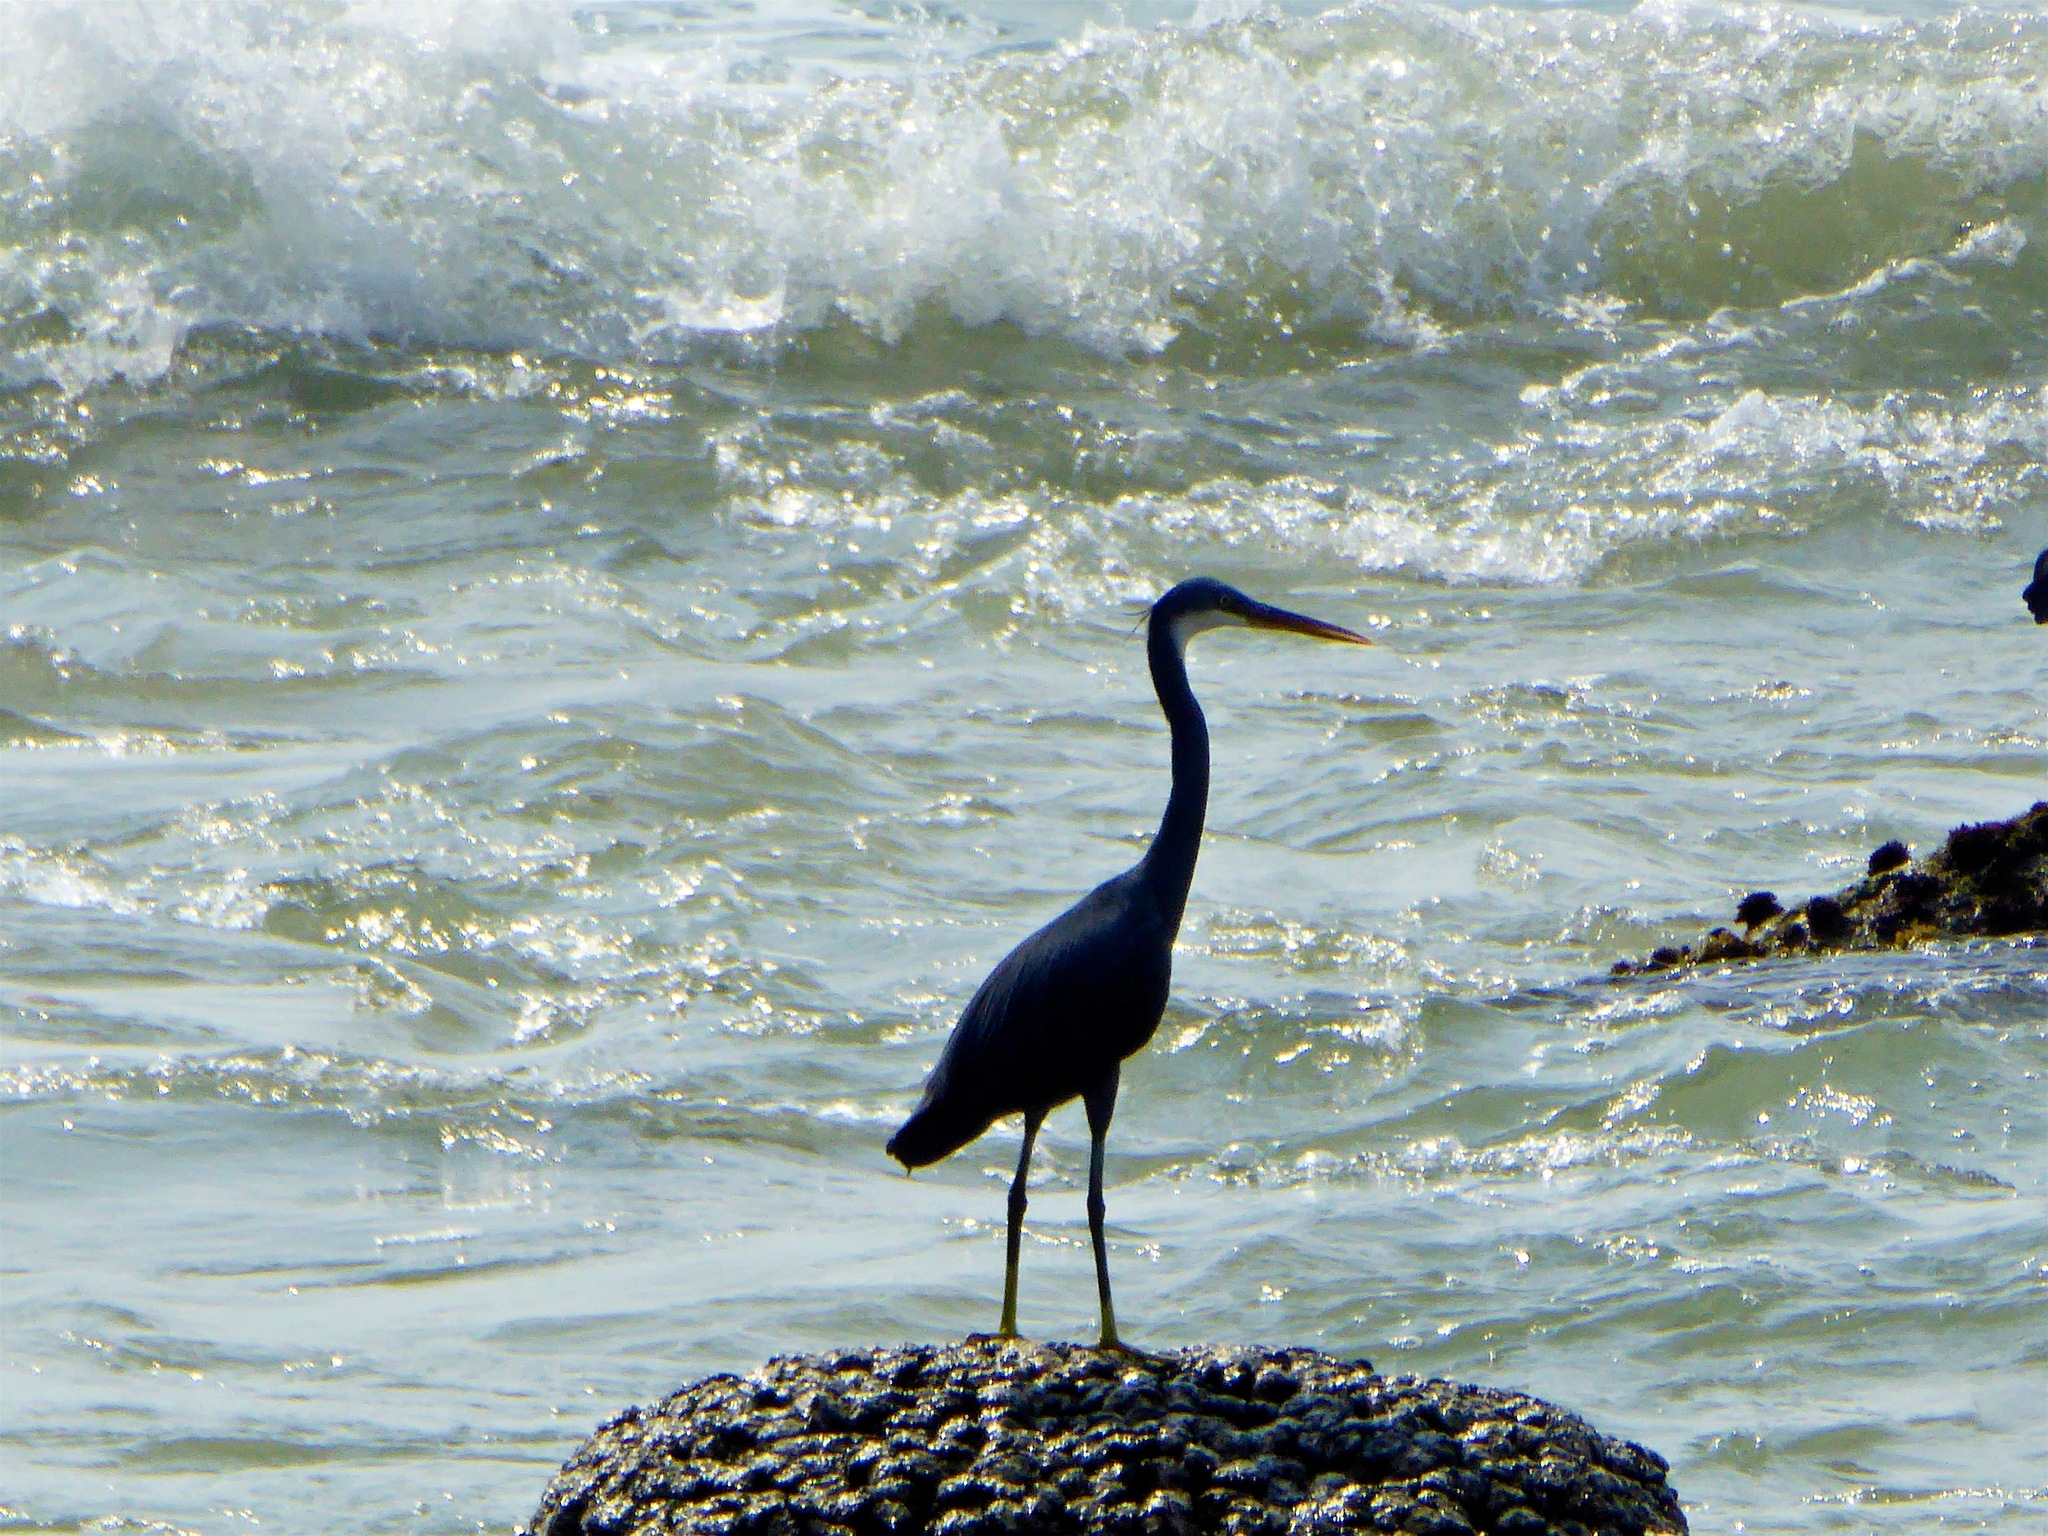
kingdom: Animalia
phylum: Chordata
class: Aves
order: Pelecaniformes
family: Ardeidae
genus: Egretta
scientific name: Egretta gularis
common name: Western reef-heron
